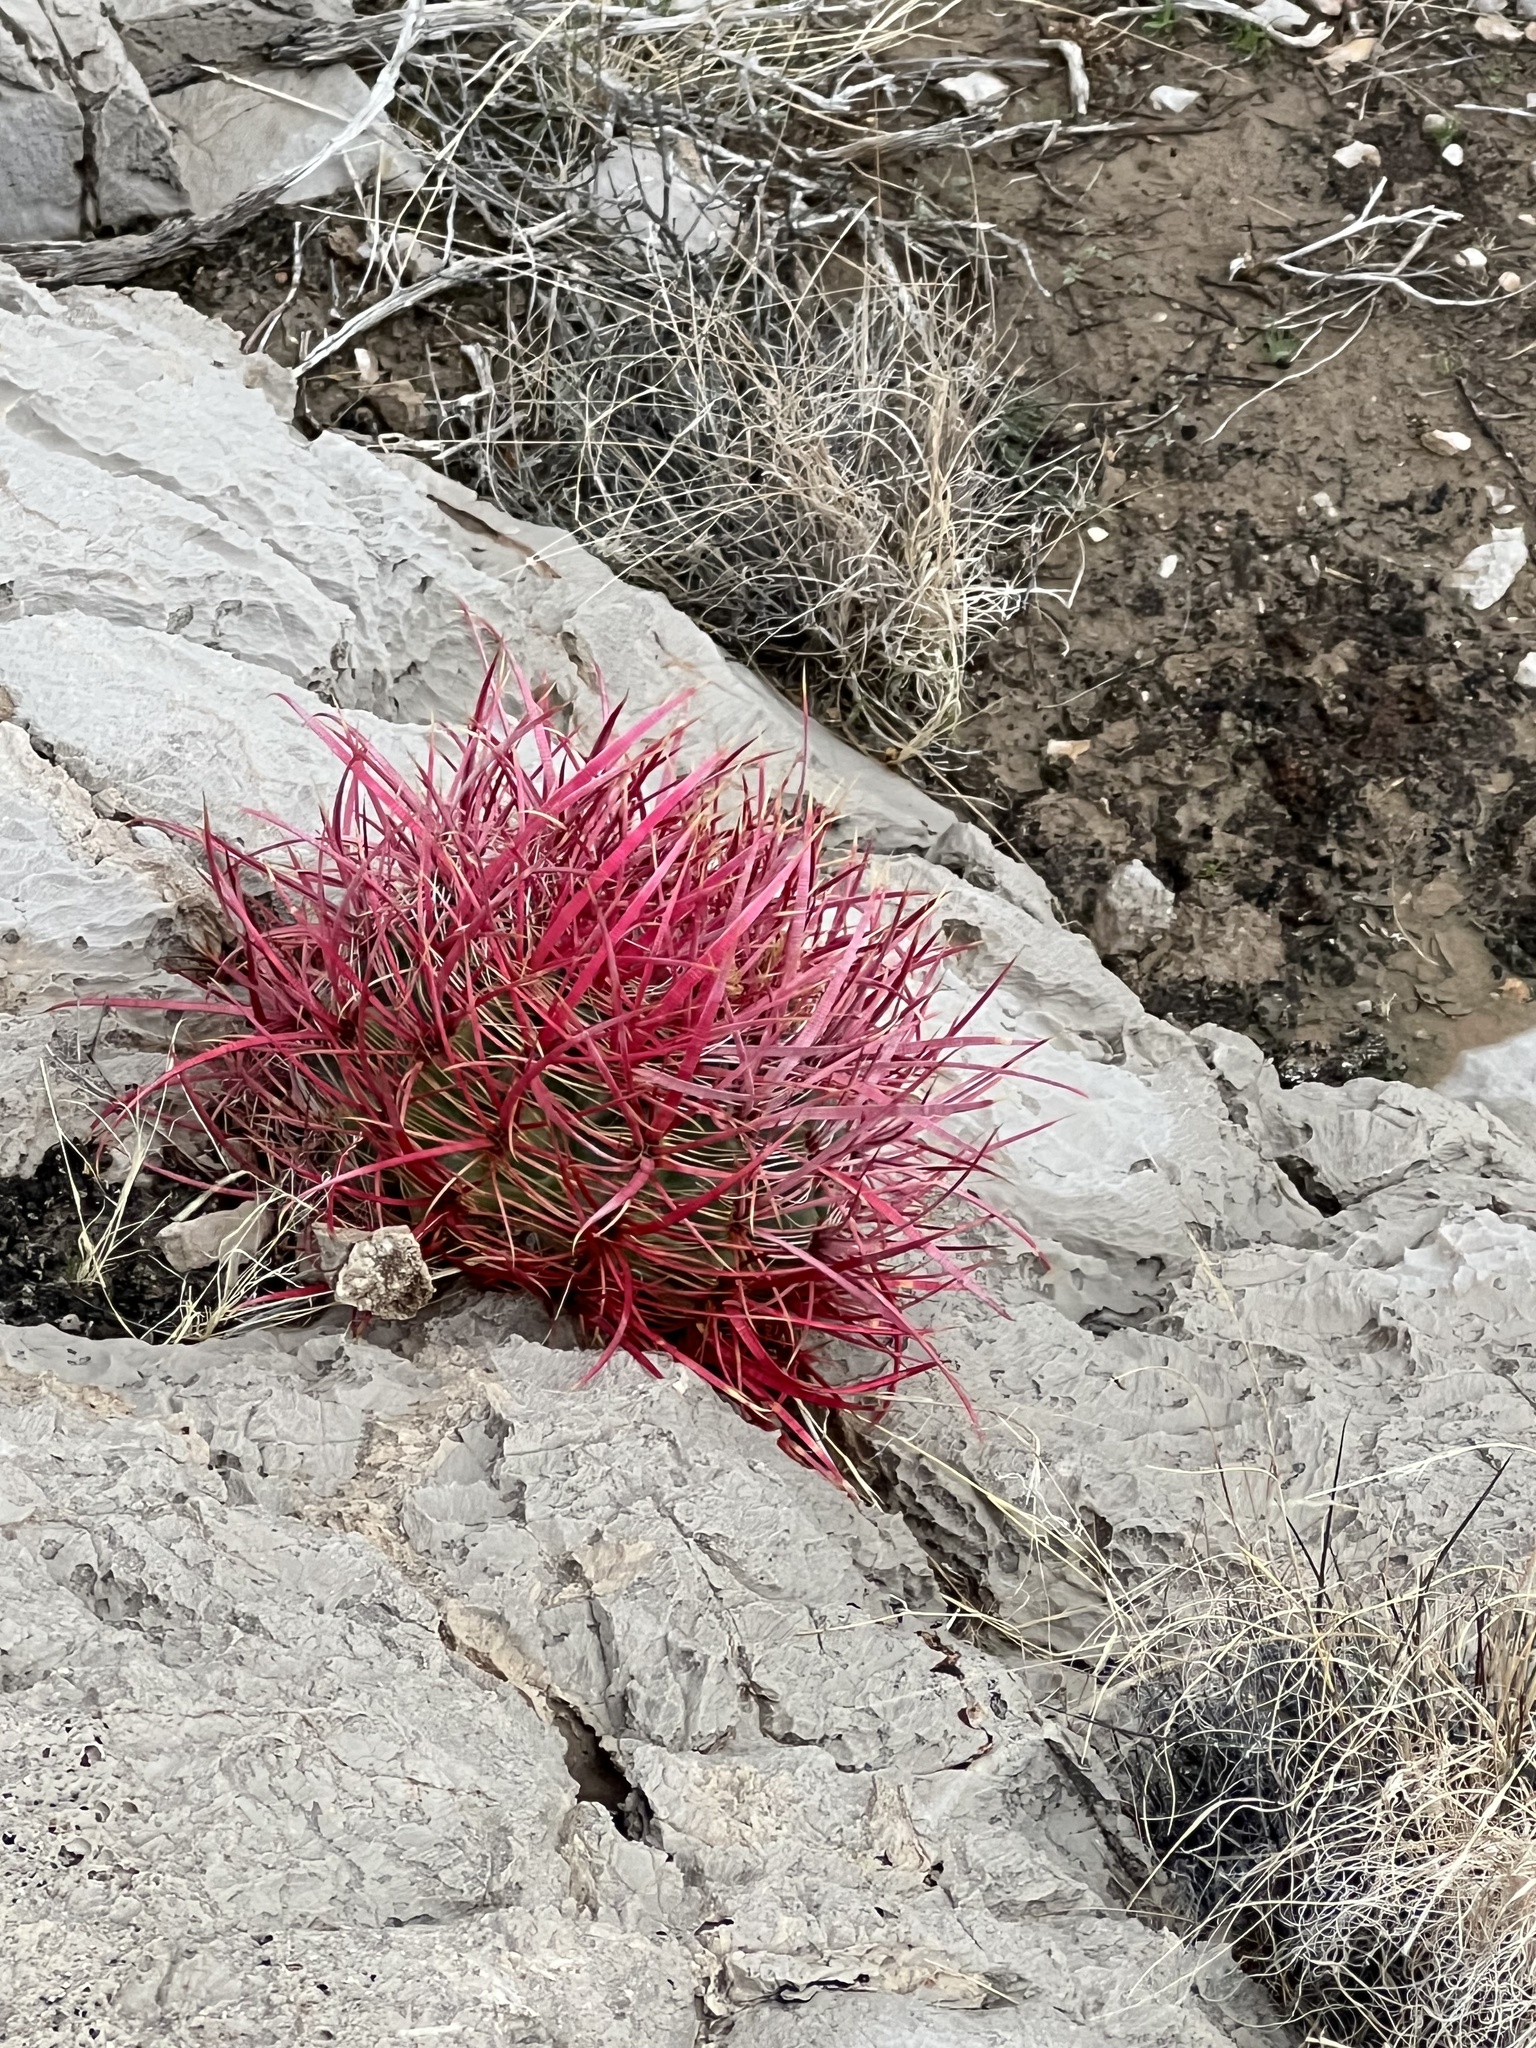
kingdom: Plantae
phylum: Tracheophyta
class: Magnoliopsida
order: Caryophyllales
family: Cactaceae
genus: Ferocactus
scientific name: Ferocactus cylindraceus
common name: California barrel cactus
